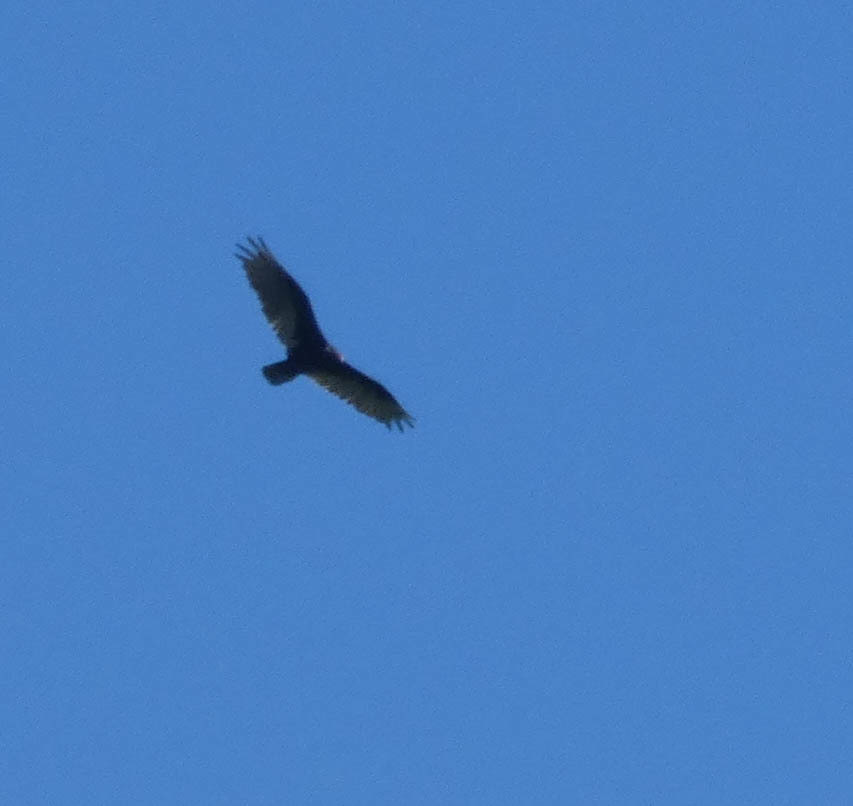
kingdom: Animalia
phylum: Chordata
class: Aves
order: Accipitriformes
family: Cathartidae
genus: Cathartes
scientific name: Cathartes aura
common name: Turkey vulture
